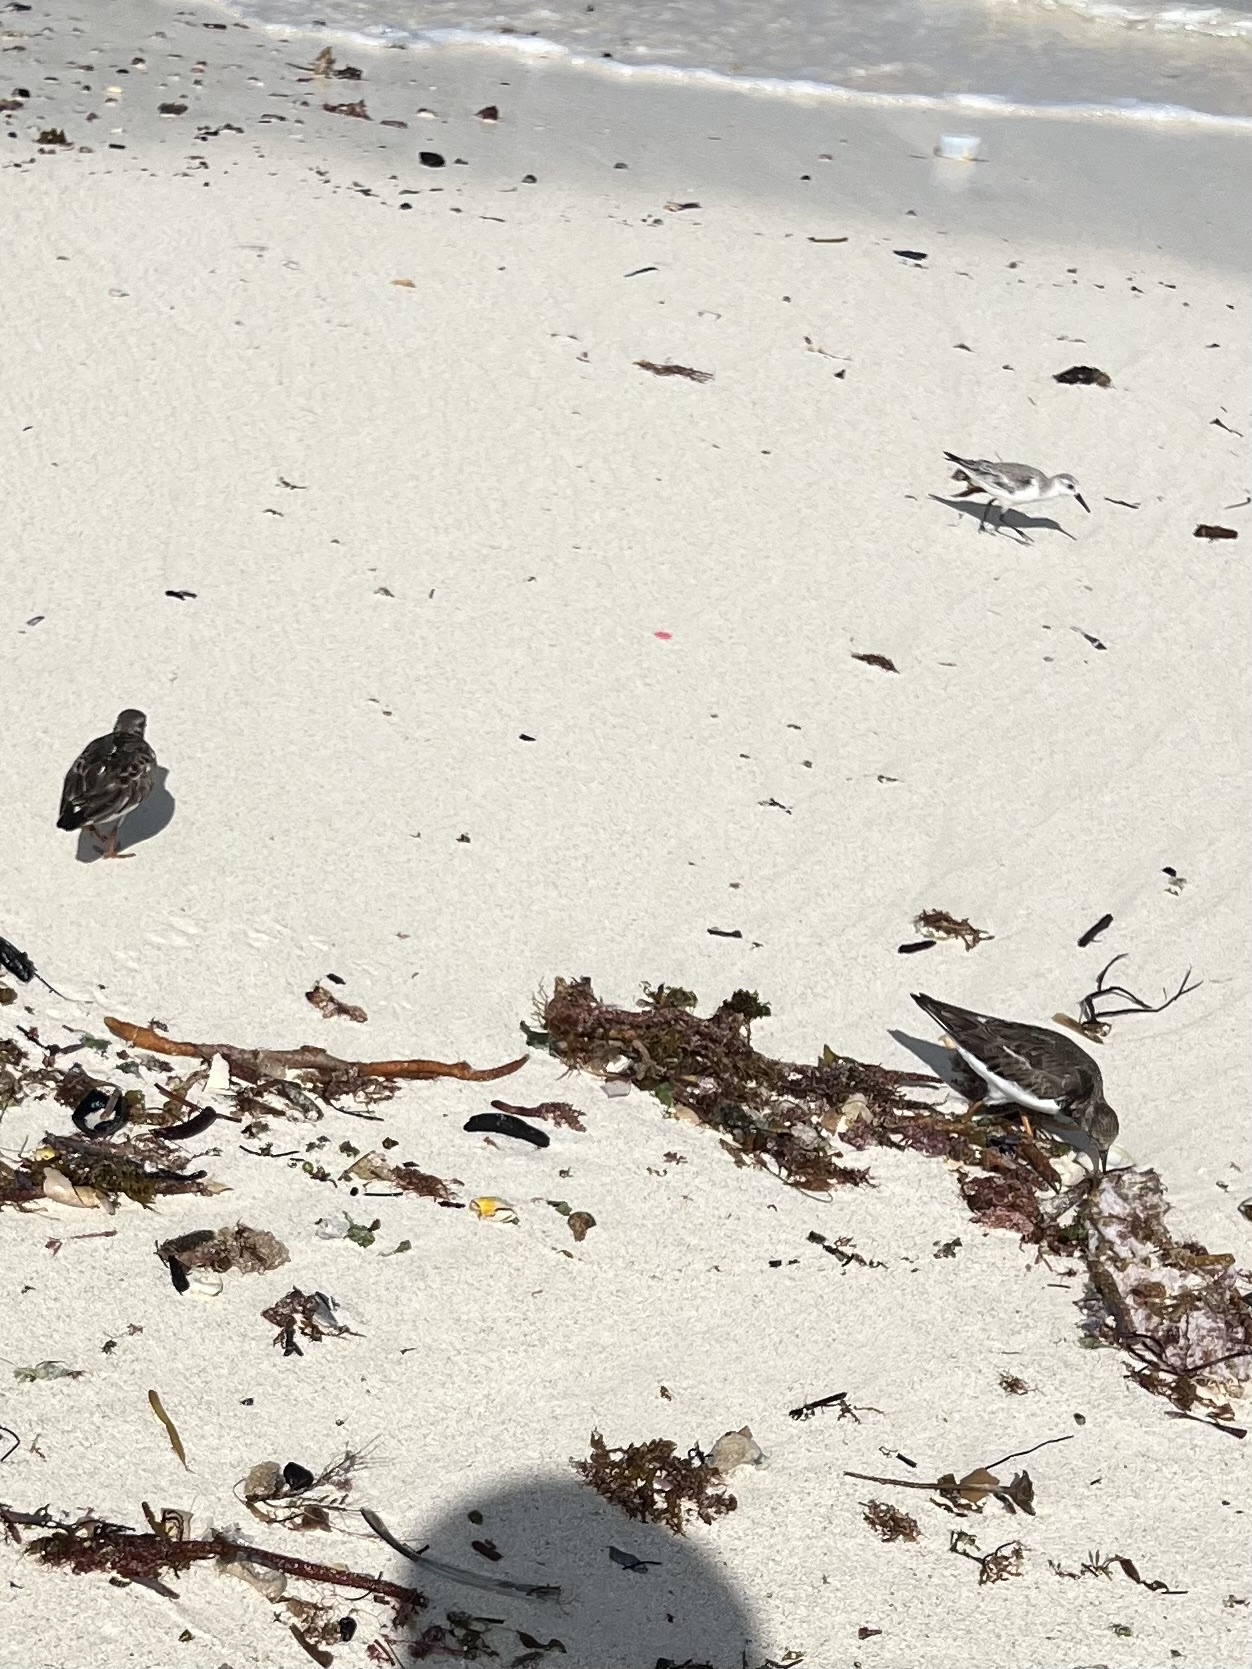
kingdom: Animalia
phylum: Chordata
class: Aves
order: Charadriiformes
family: Scolopacidae
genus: Arenaria
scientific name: Arenaria interpres
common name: Ruddy turnstone
